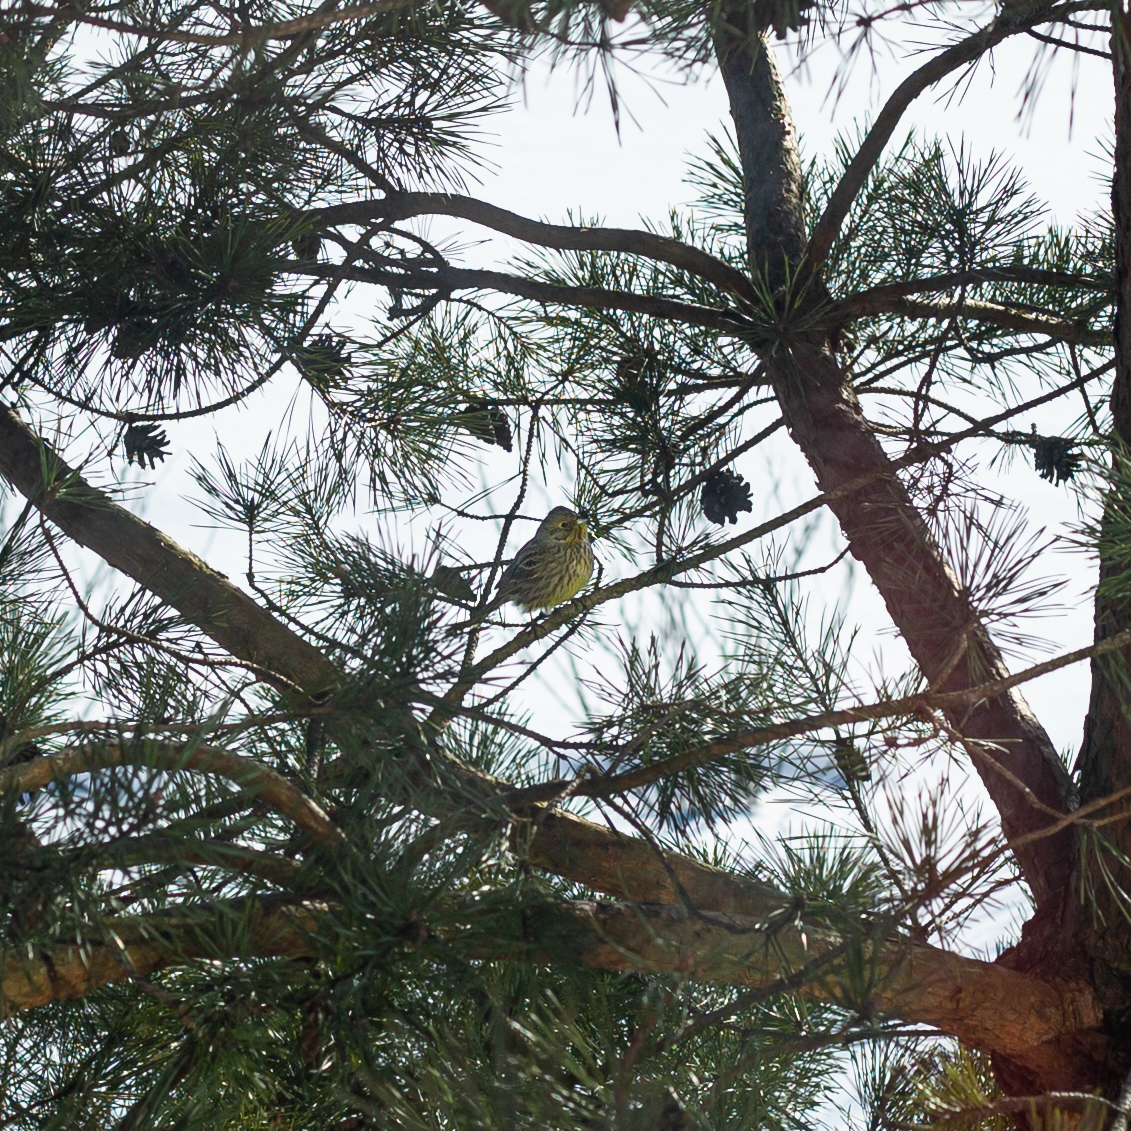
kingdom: Animalia
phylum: Chordata
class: Aves
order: Passeriformes
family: Emberizidae
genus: Emberiza
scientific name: Emberiza citrinella
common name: Yellowhammer
